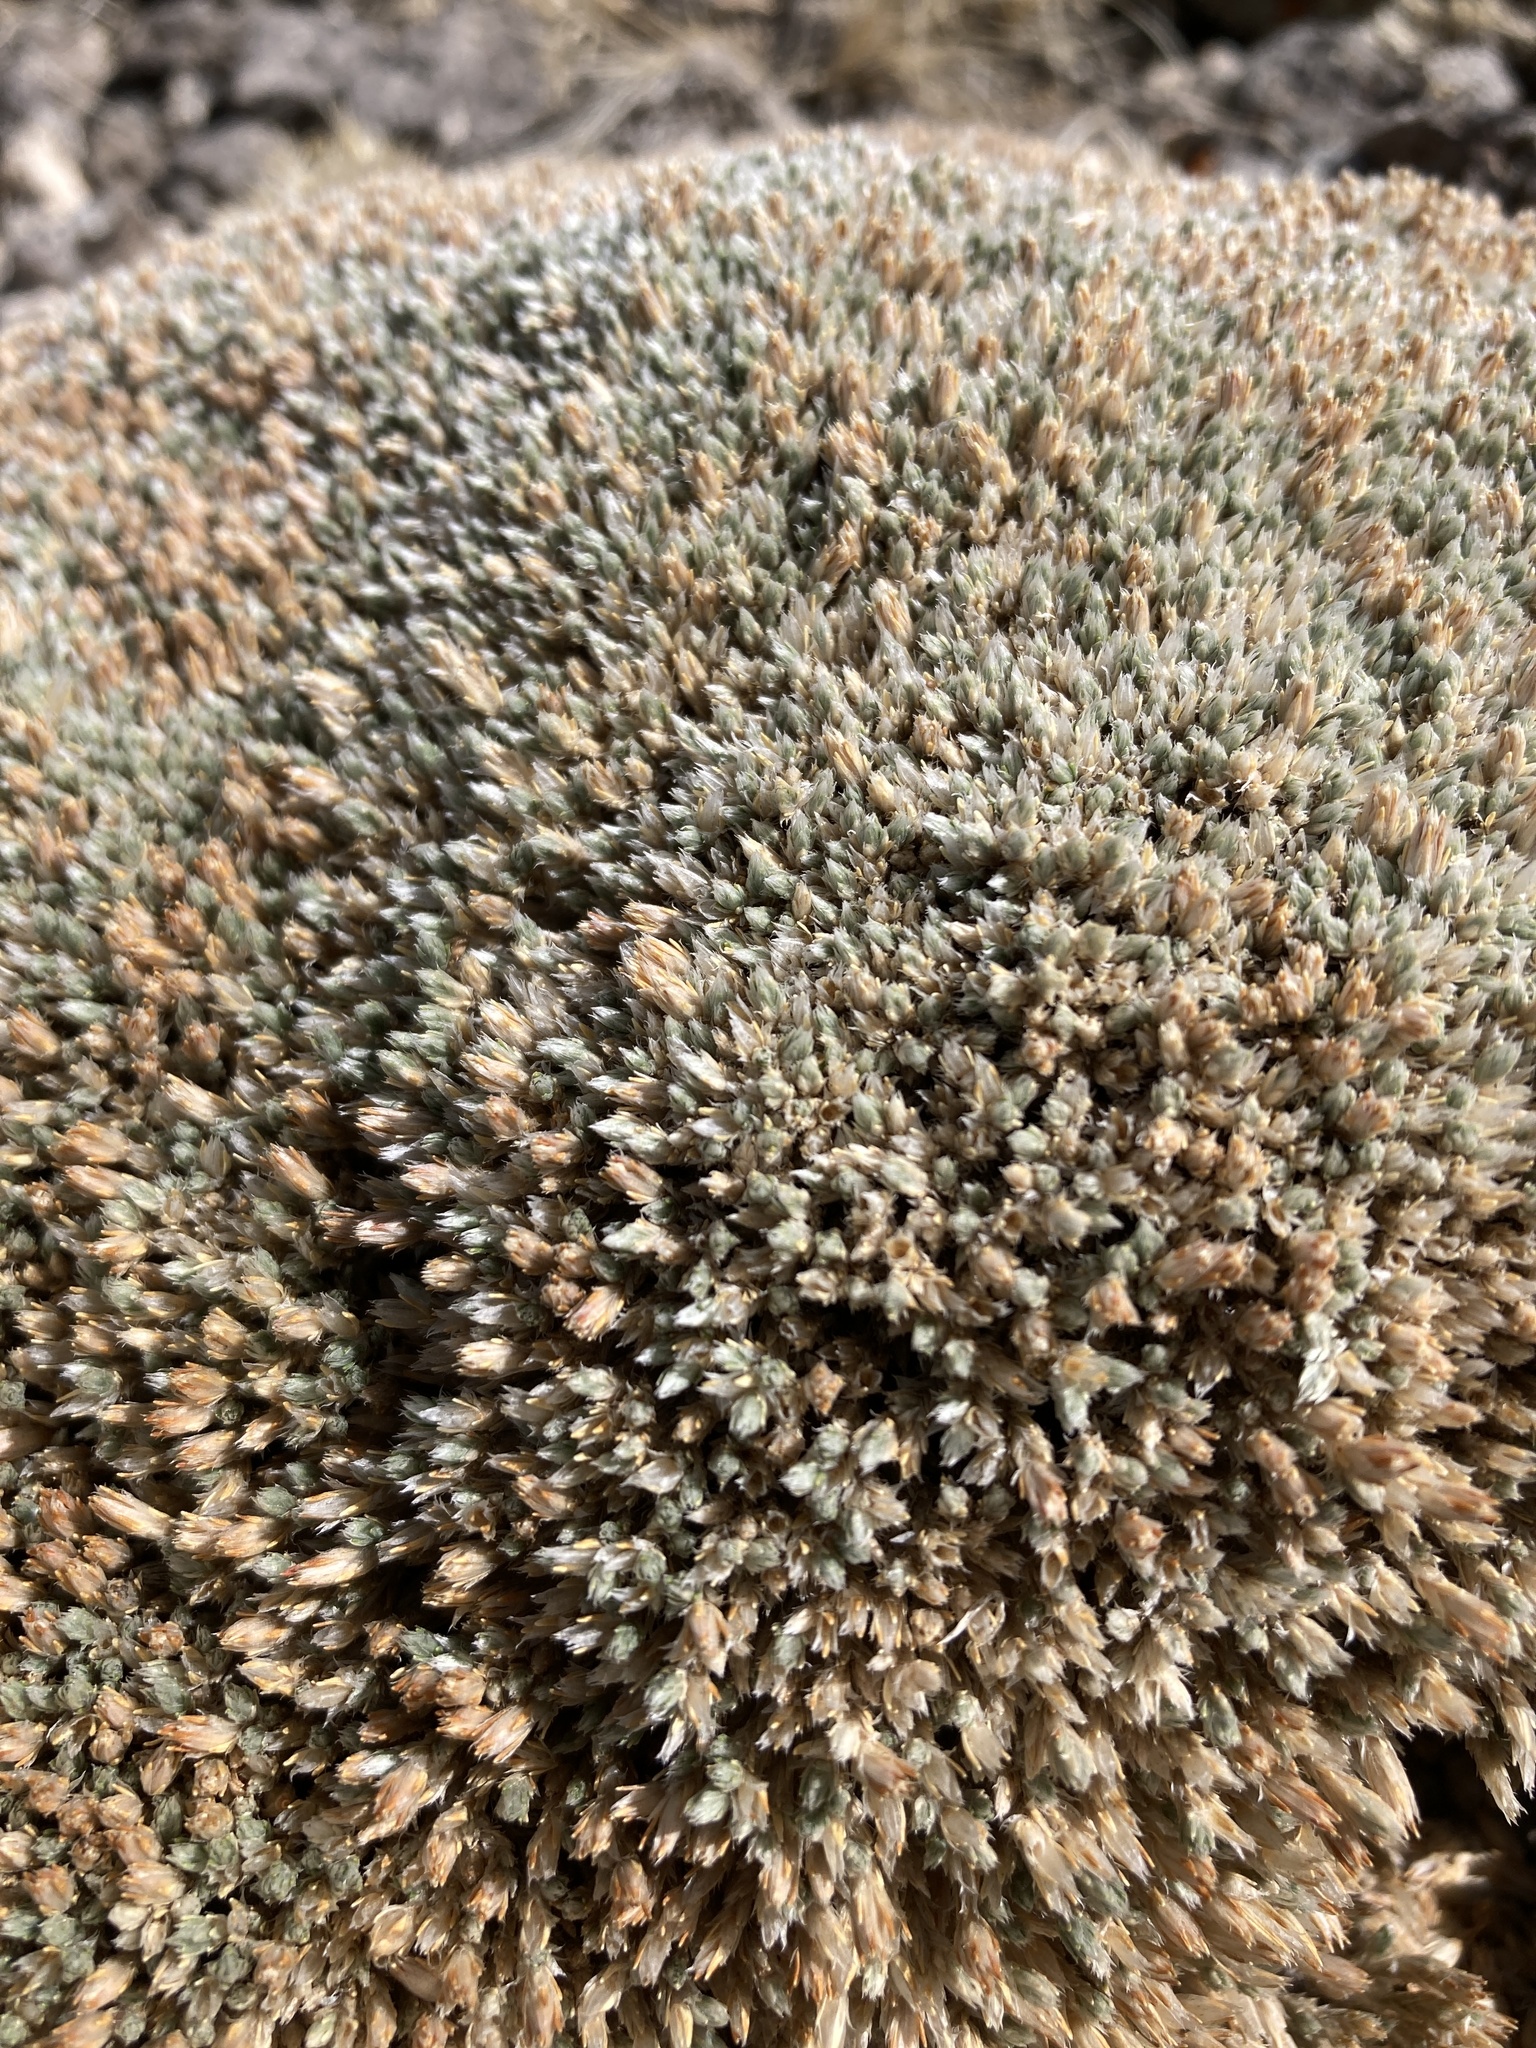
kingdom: Plantae
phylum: Tracheophyta
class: Magnoliopsida
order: Caryophyllales
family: Caryophyllaceae
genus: Paronychia
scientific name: Paronychia sessiliflora
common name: Creeping nailwort
